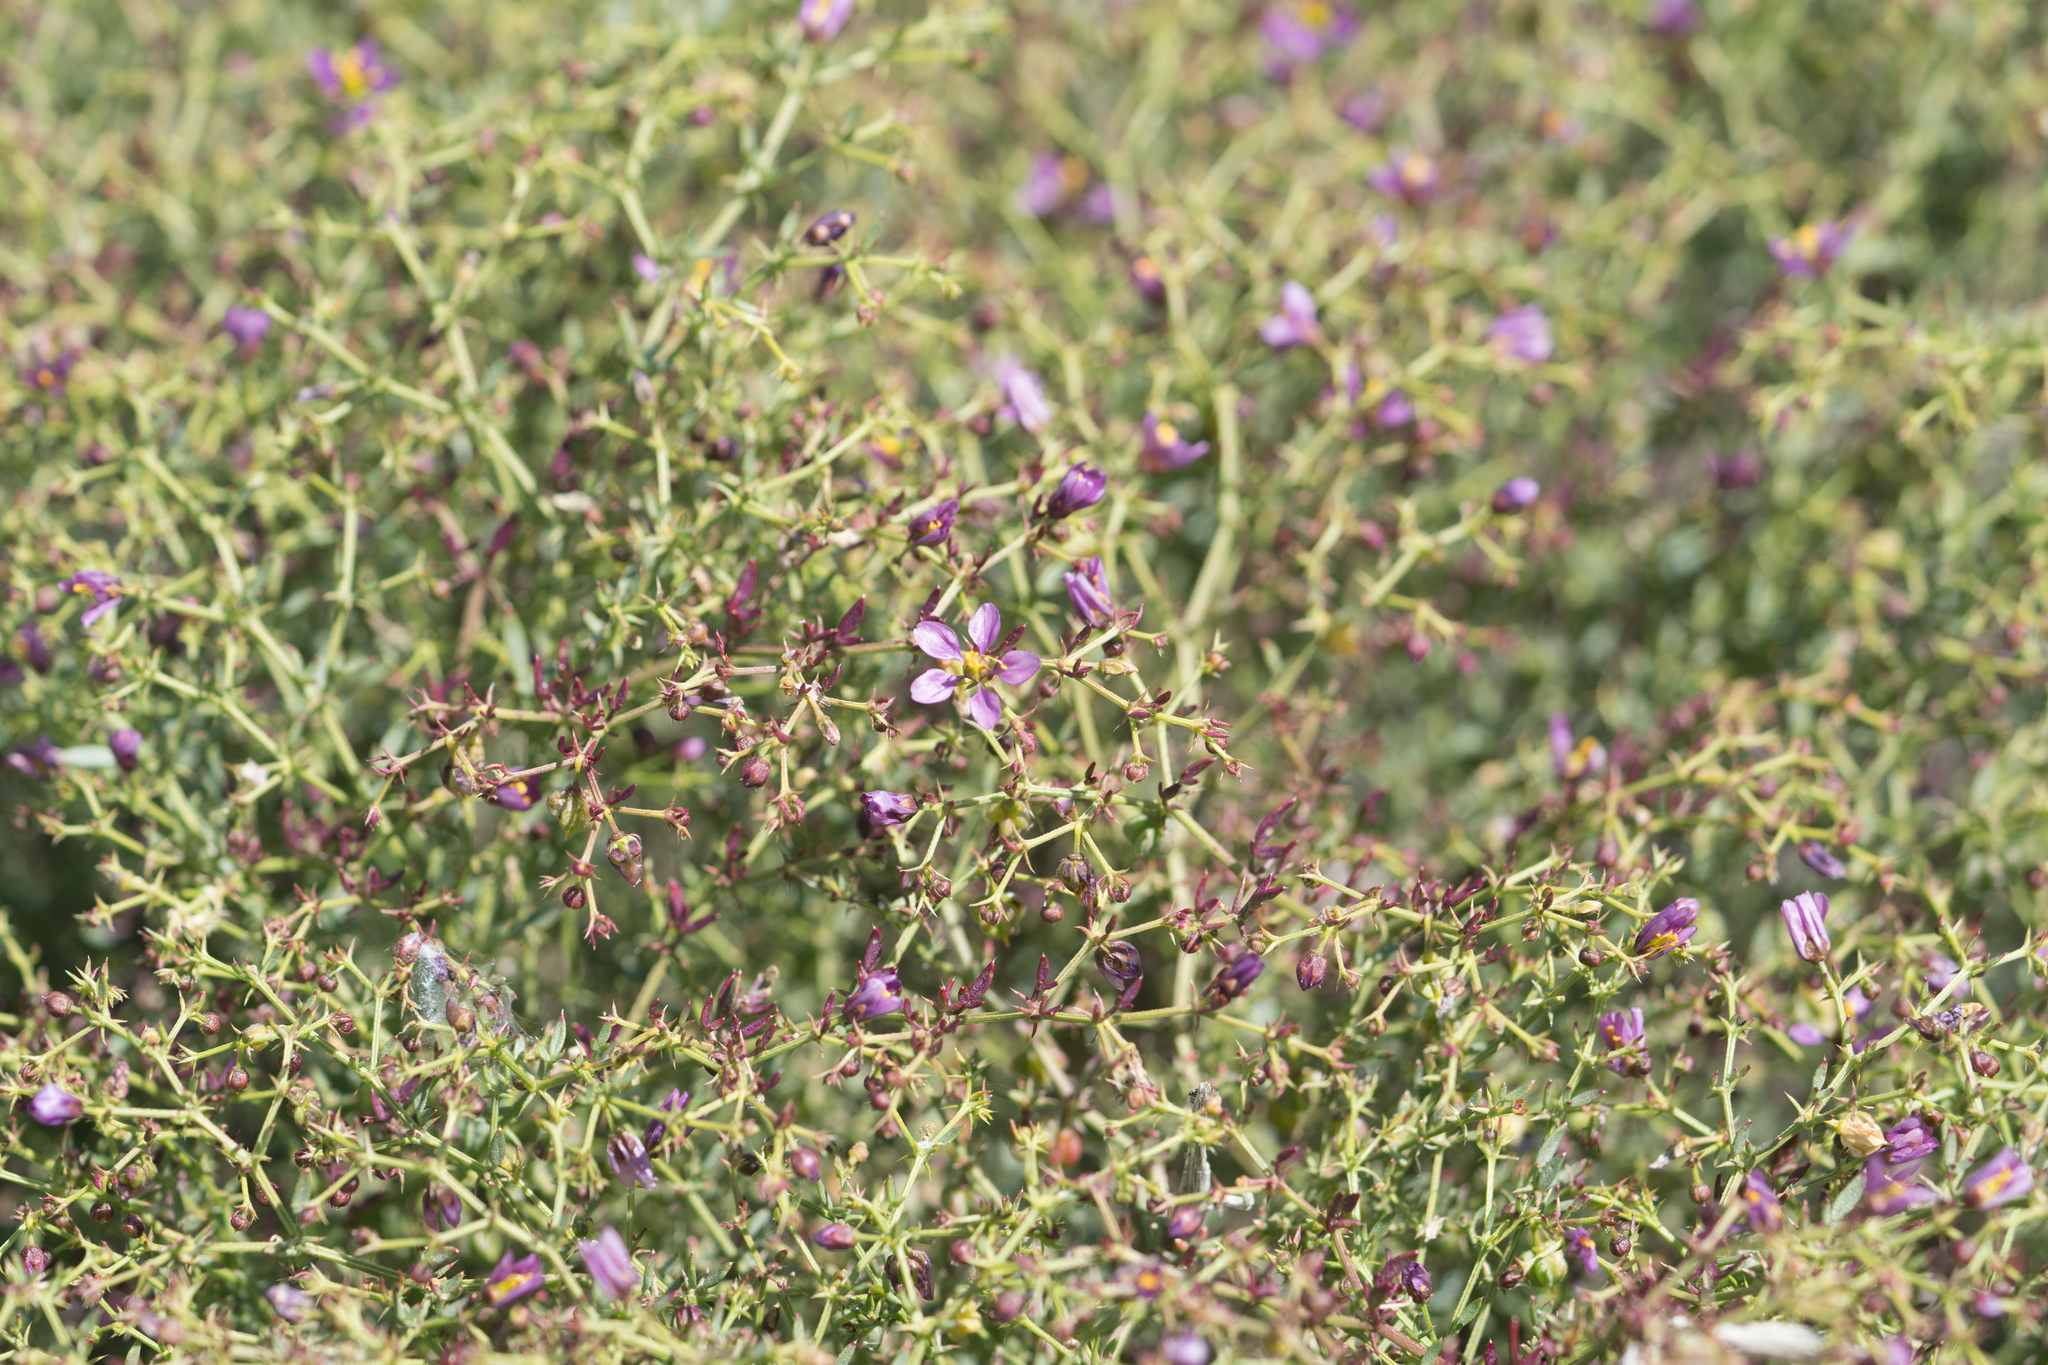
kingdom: Plantae
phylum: Tracheophyta
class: Magnoliopsida
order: Zygophyllales
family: Zygophyllaceae
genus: Fagonia
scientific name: Fagonia laevis
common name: California fagonbush
